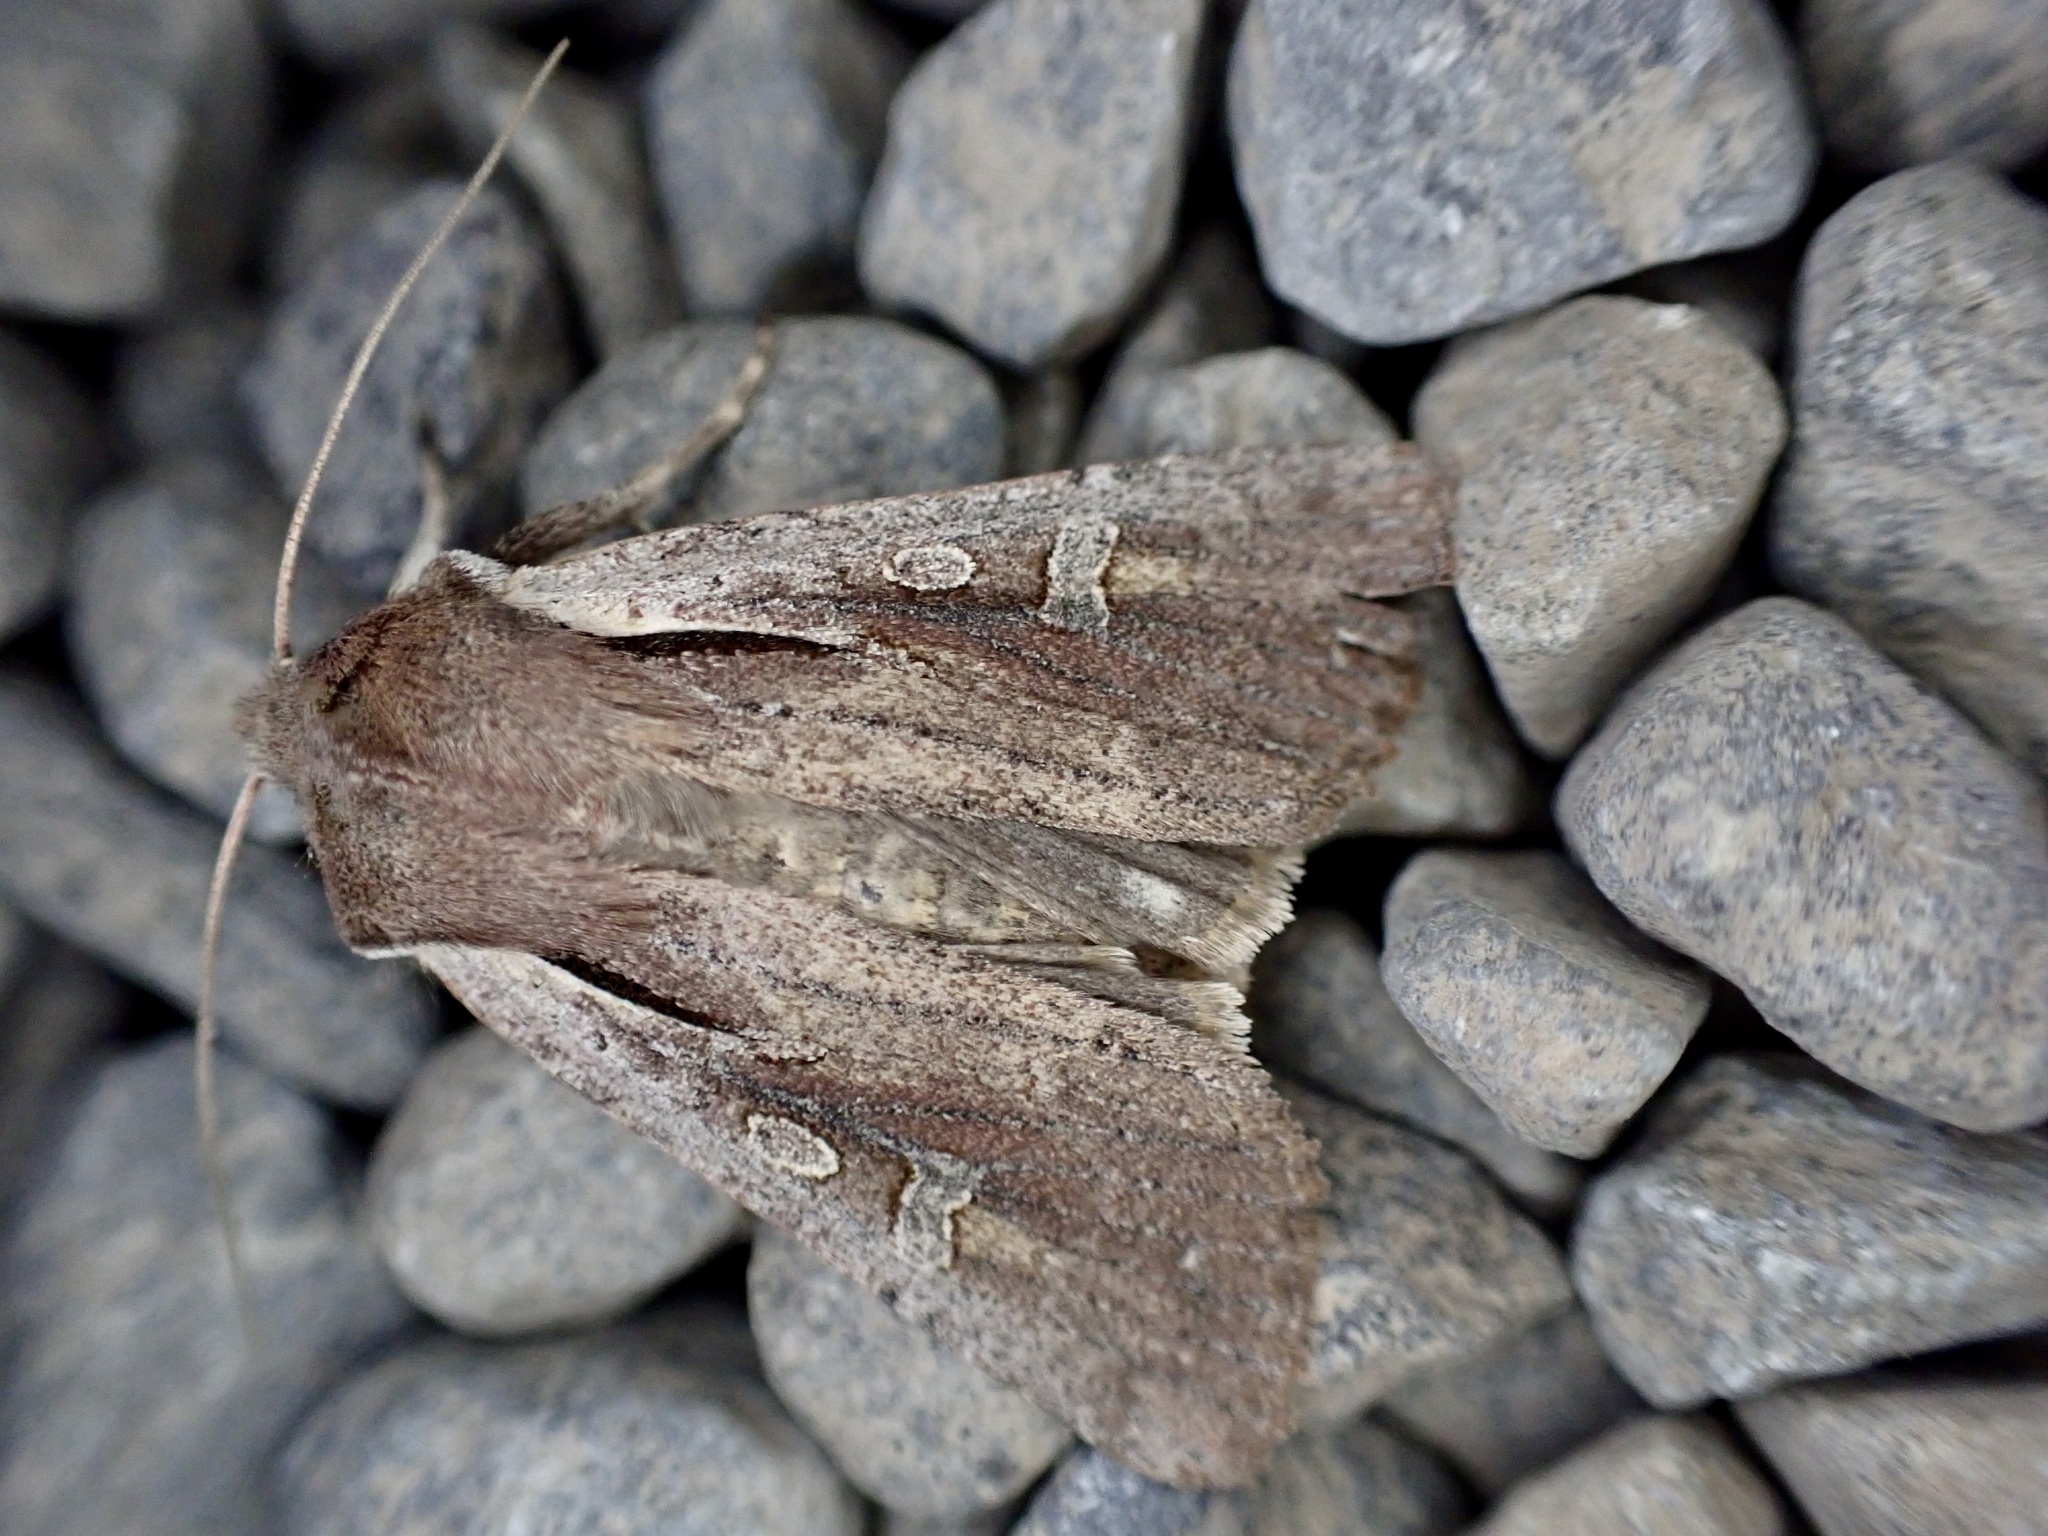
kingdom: Animalia
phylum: Arthropoda
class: Insecta
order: Lepidoptera
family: Noctuidae
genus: Ichneutica
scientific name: Ichneutica atristriga
